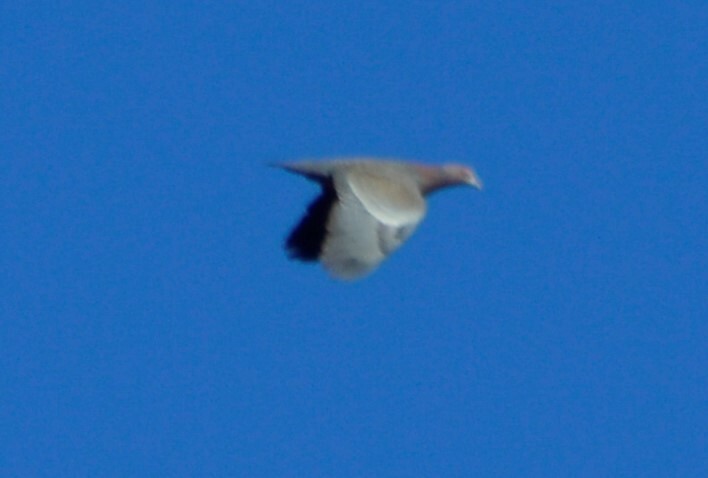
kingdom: Animalia
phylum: Chordata
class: Aves
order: Columbiformes
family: Columbidae
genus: Patagioenas
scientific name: Patagioenas picazuro
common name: Picazuro pigeon
